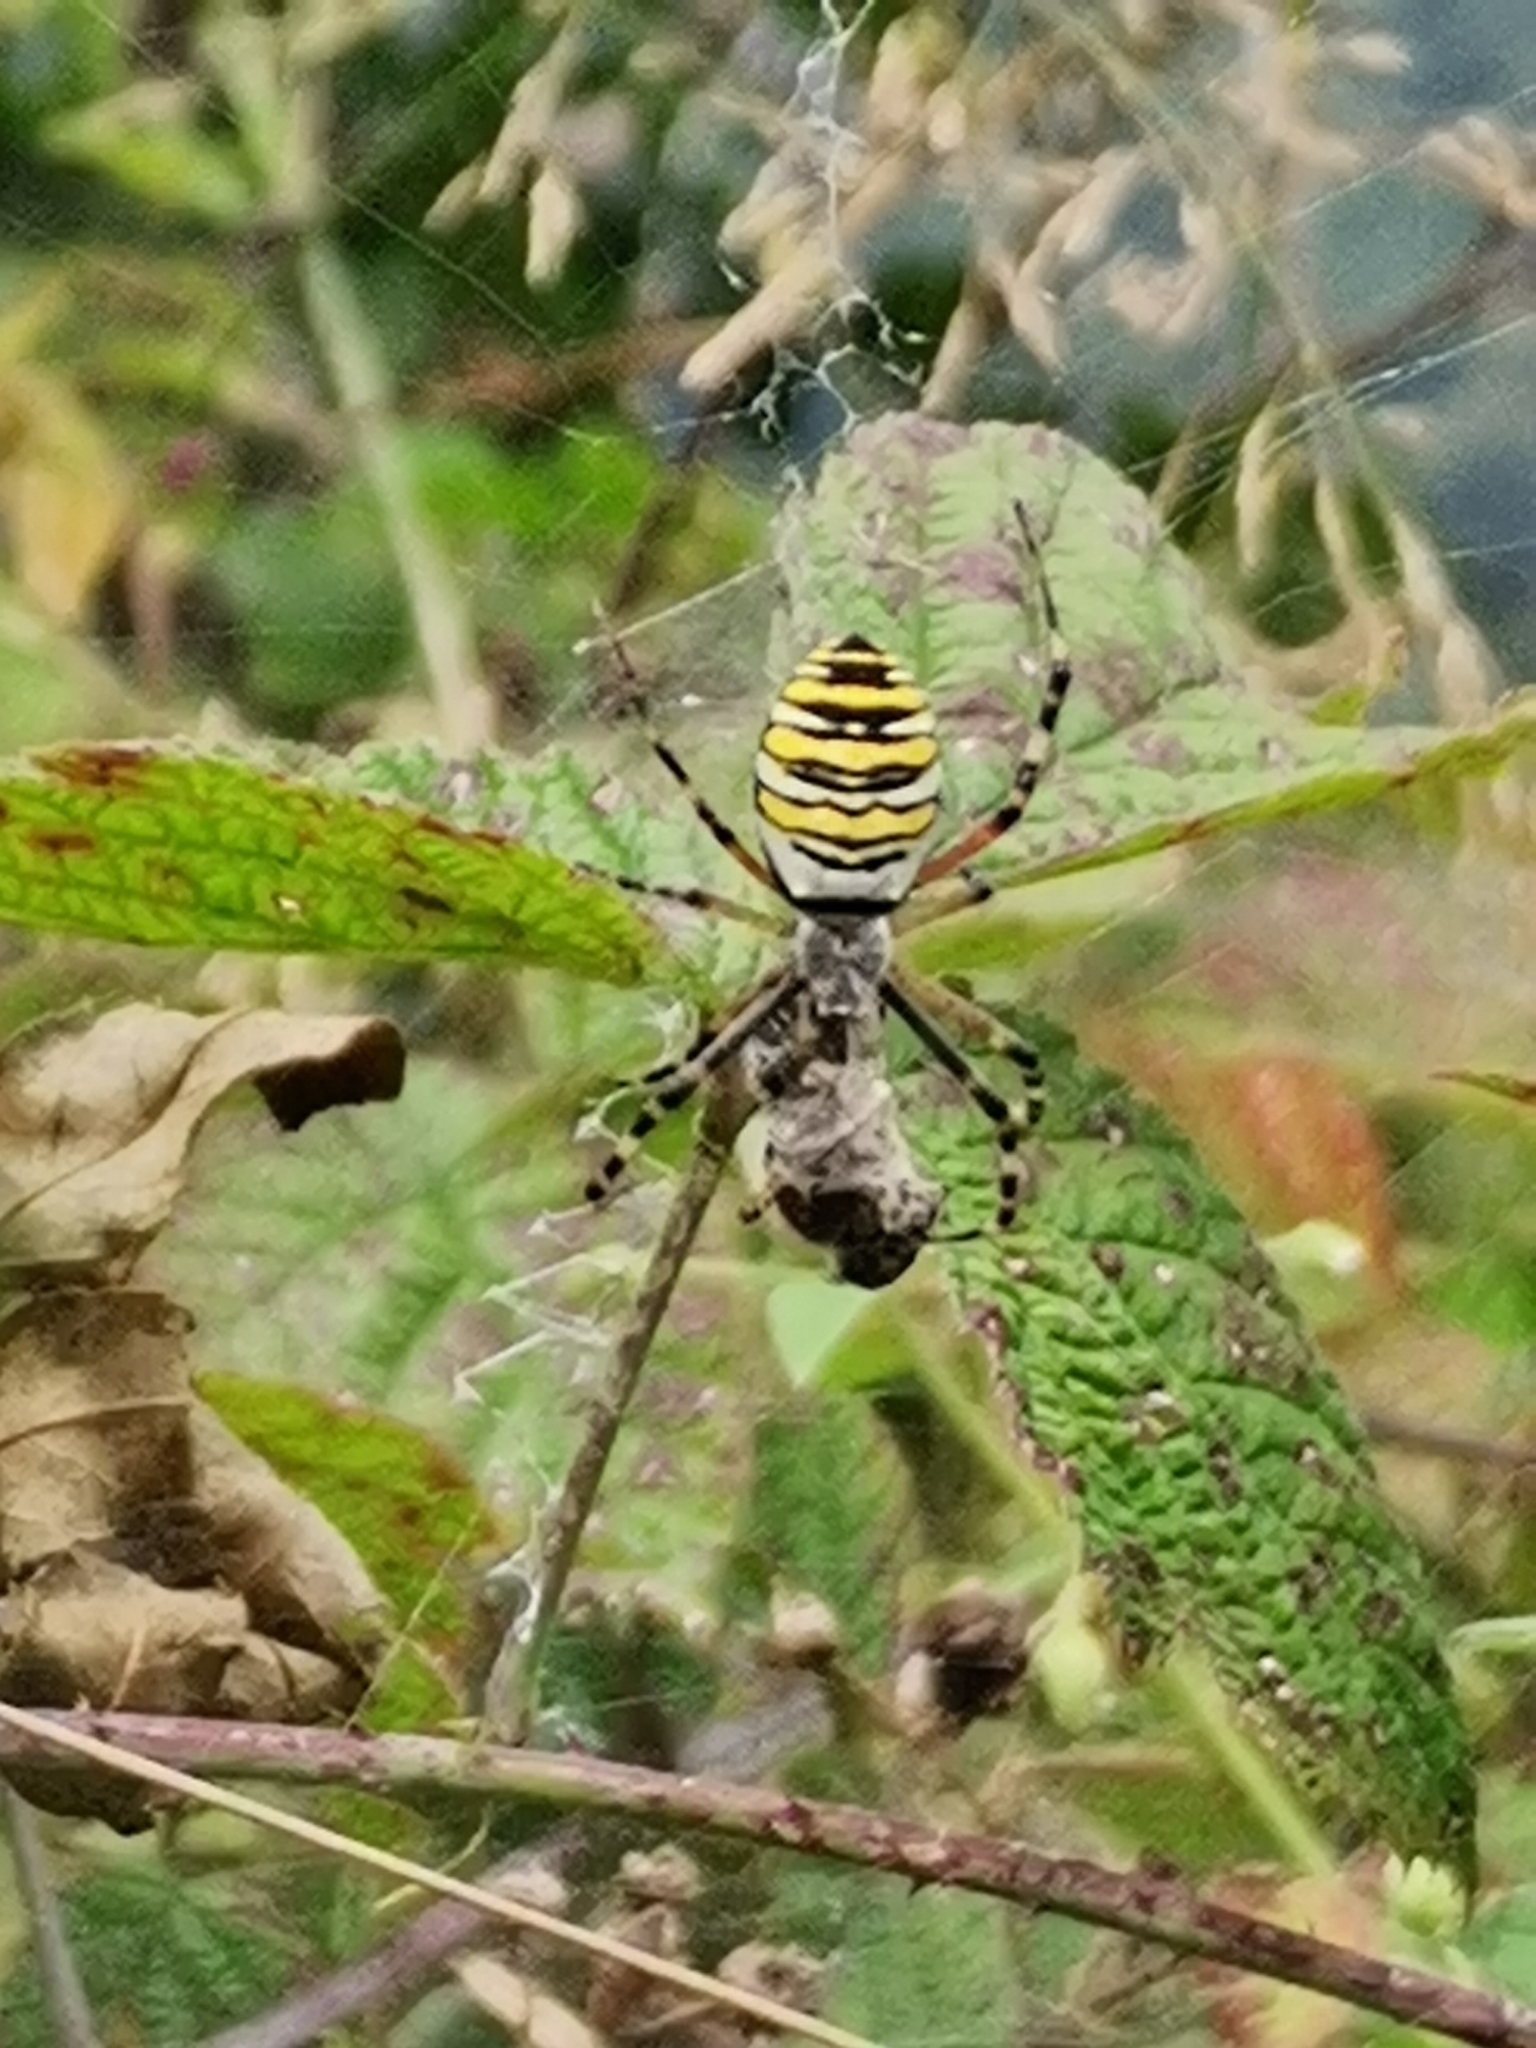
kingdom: Animalia
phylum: Arthropoda
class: Arachnida
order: Araneae
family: Araneidae
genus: Argiope
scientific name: Argiope bruennichi
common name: Wasp spider
